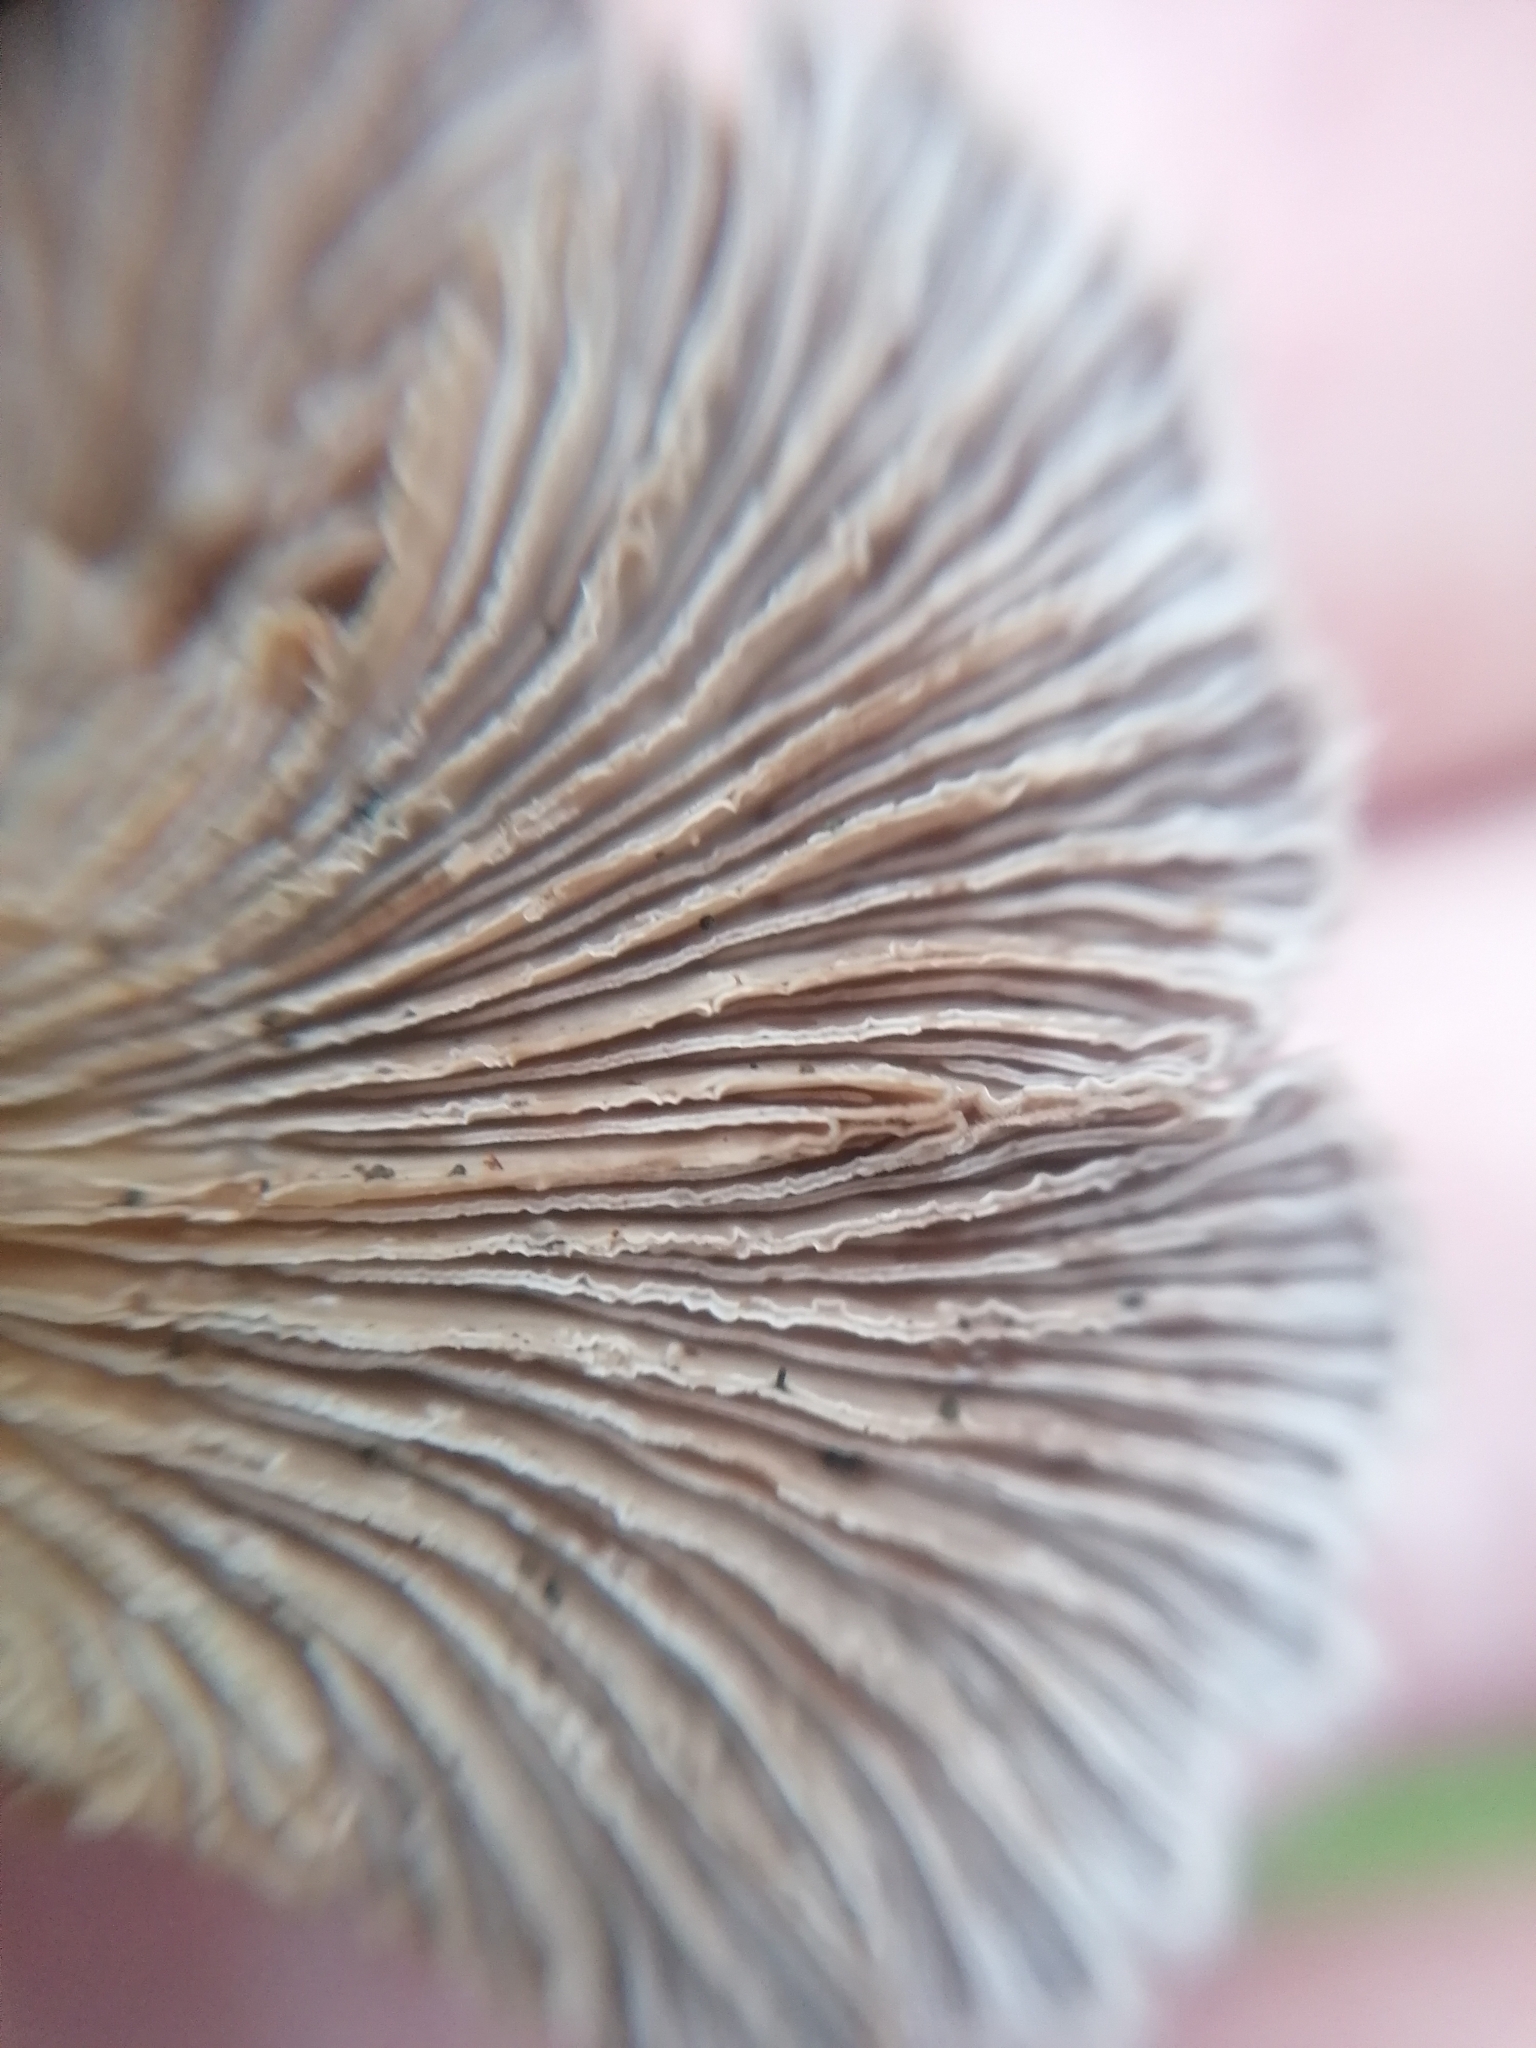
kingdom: Fungi
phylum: Basidiomycota
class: Agaricomycetes
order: Agaricales
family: Schizophyllaceae
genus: Schizophyllum
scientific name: Schizophyllum commune
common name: Common porecrust
